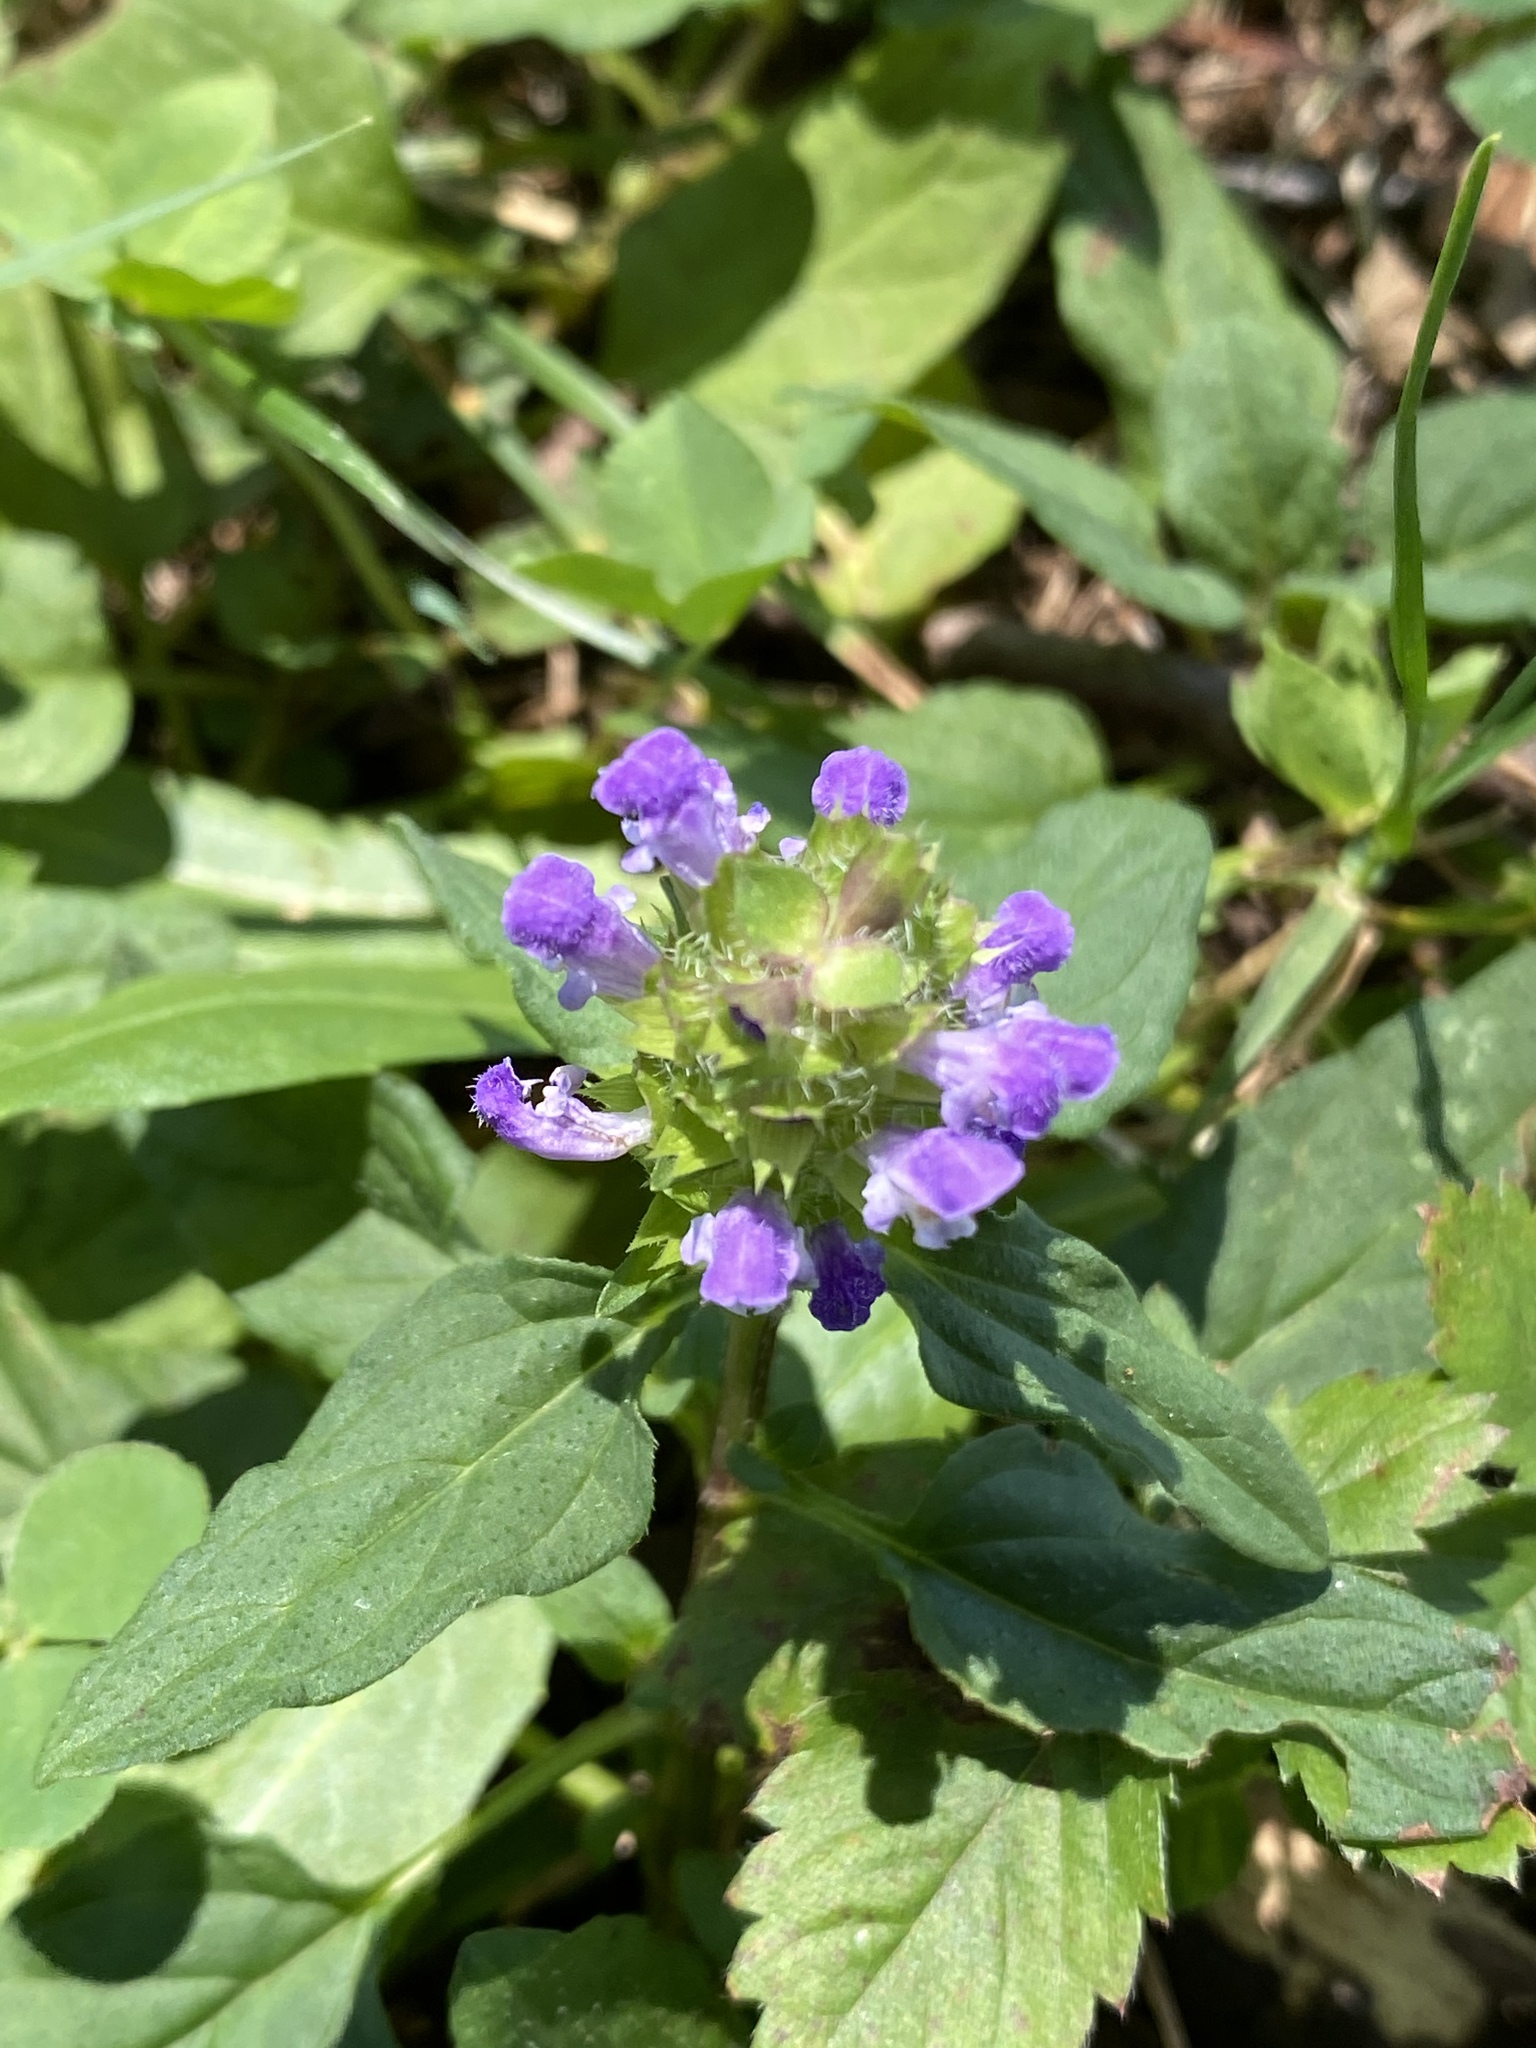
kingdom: Plantae
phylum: Tracheophyta
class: Magnoliopsida
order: Lamiales
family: Lamiaceae
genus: Prunella
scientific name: Prunella vulgaris
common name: Heal-all
